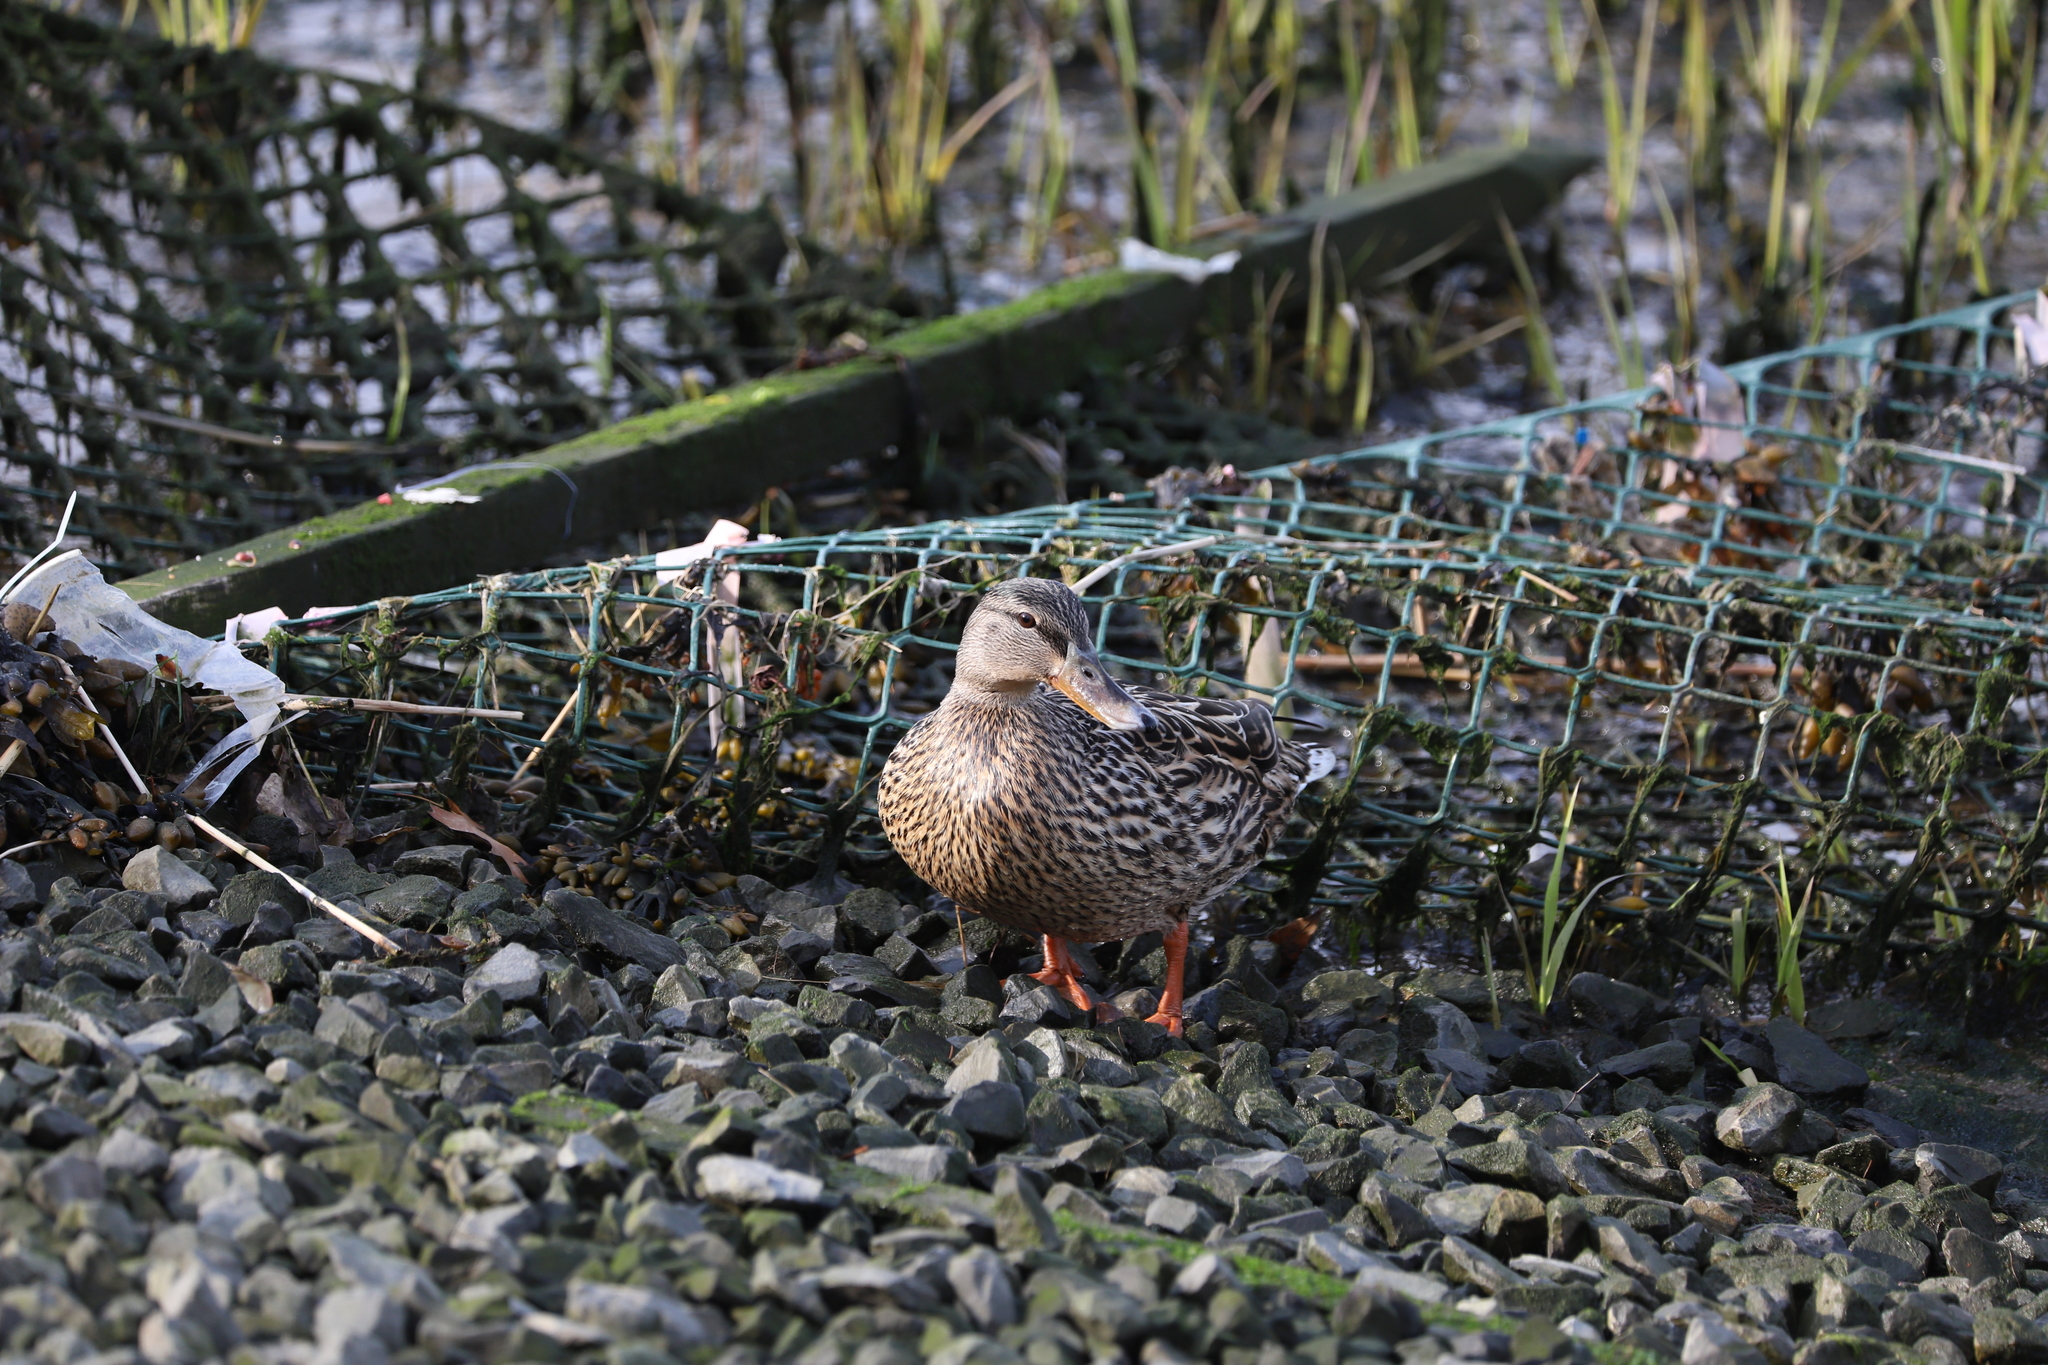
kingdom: Animalia
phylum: Chordata
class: Aves
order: Anseriformes
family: Anatidae
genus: Anas
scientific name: Anas platyrhynchos
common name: Mallard
